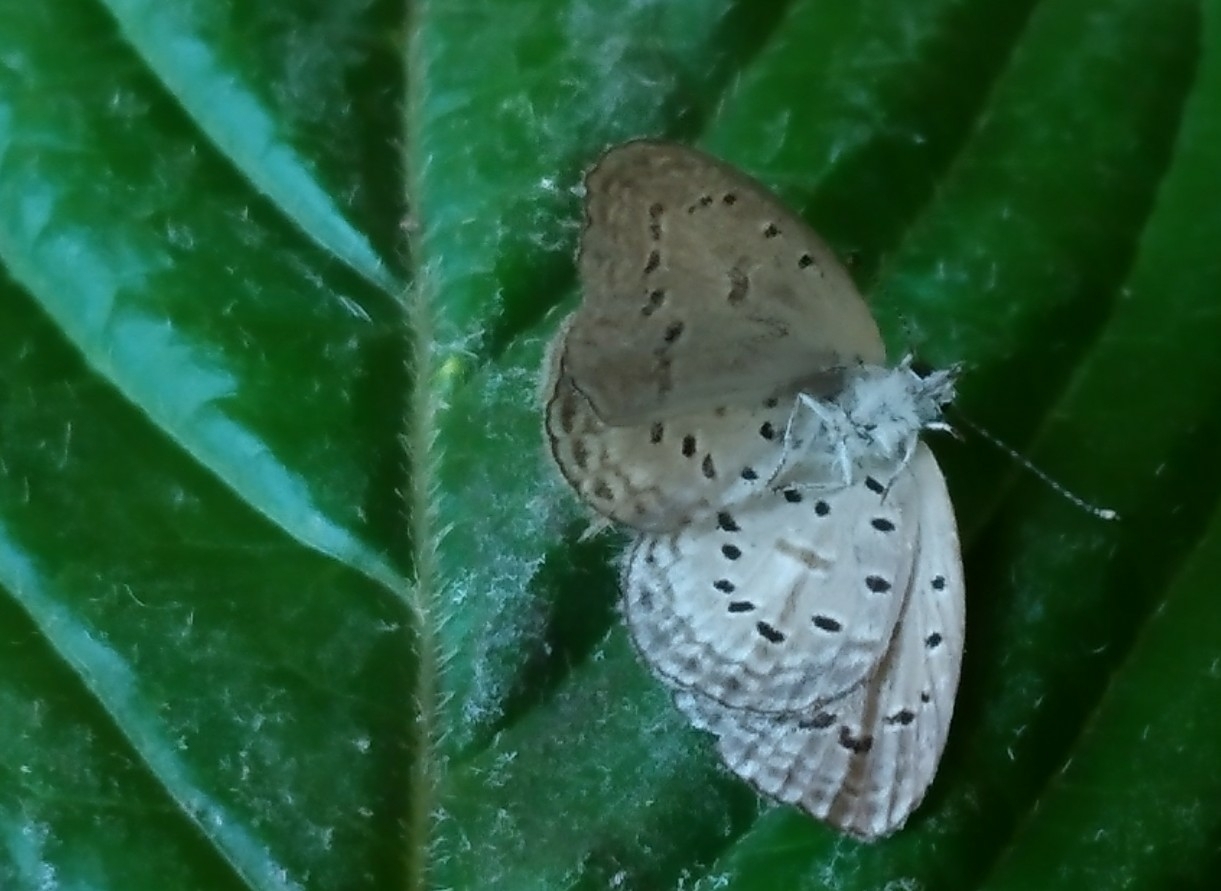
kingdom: Animalia
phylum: Arthropoda
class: Insecta
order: Lepidoptera
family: Lycaenidae
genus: Zizula
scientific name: Zizula hylax
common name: Gaika blue
